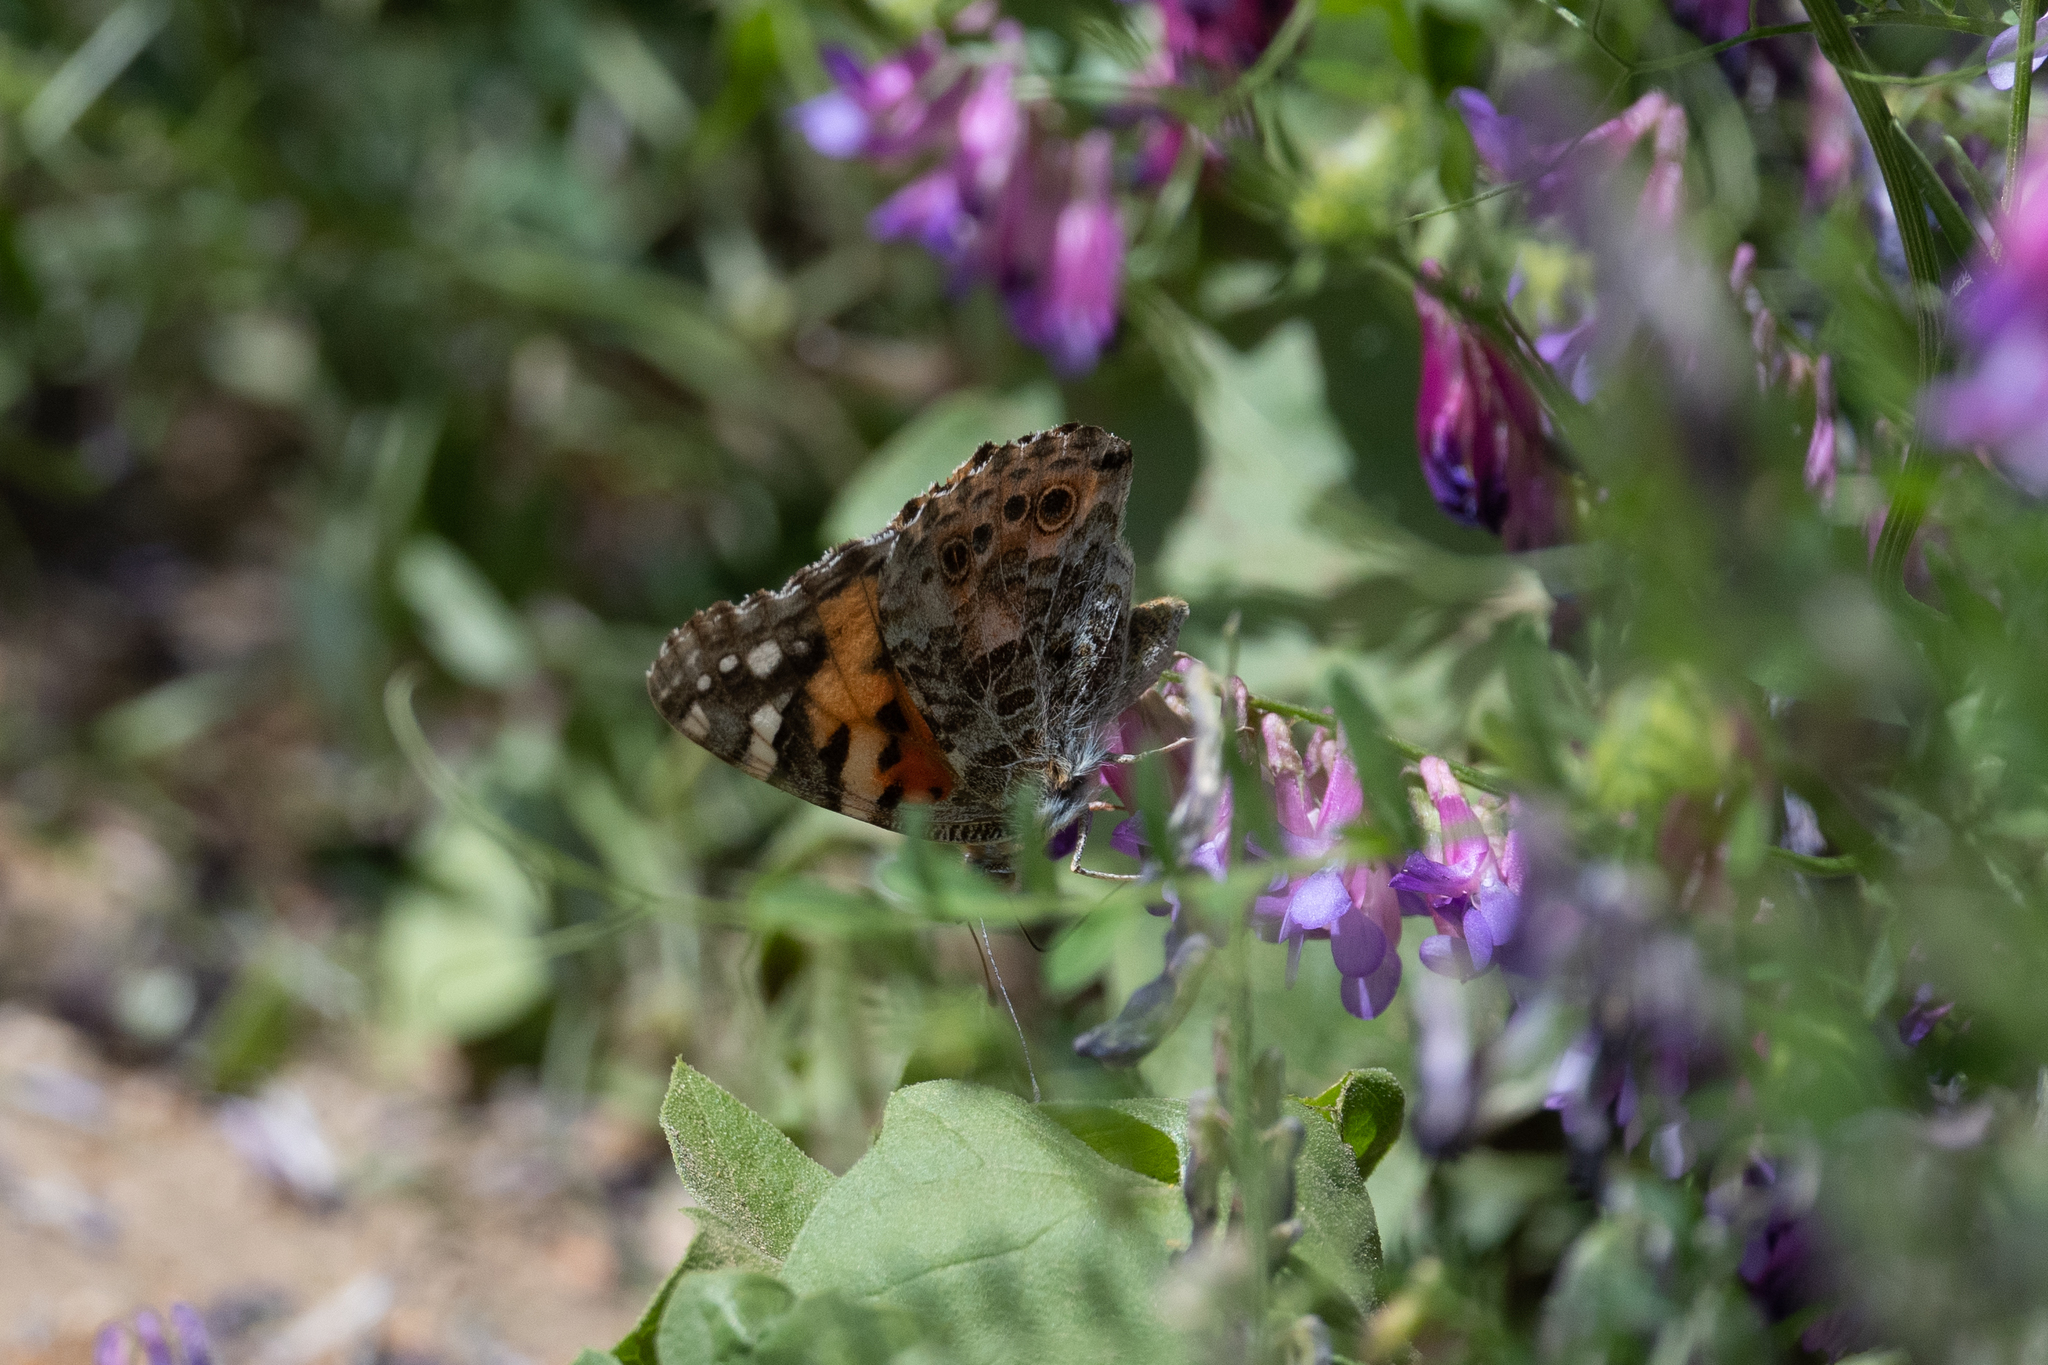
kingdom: Animalia
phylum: Arthropoda
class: Insecta
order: Lepidoptera
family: Nymphalidae
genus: Vanessa
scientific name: Vanessa cardui
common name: Painted lady
